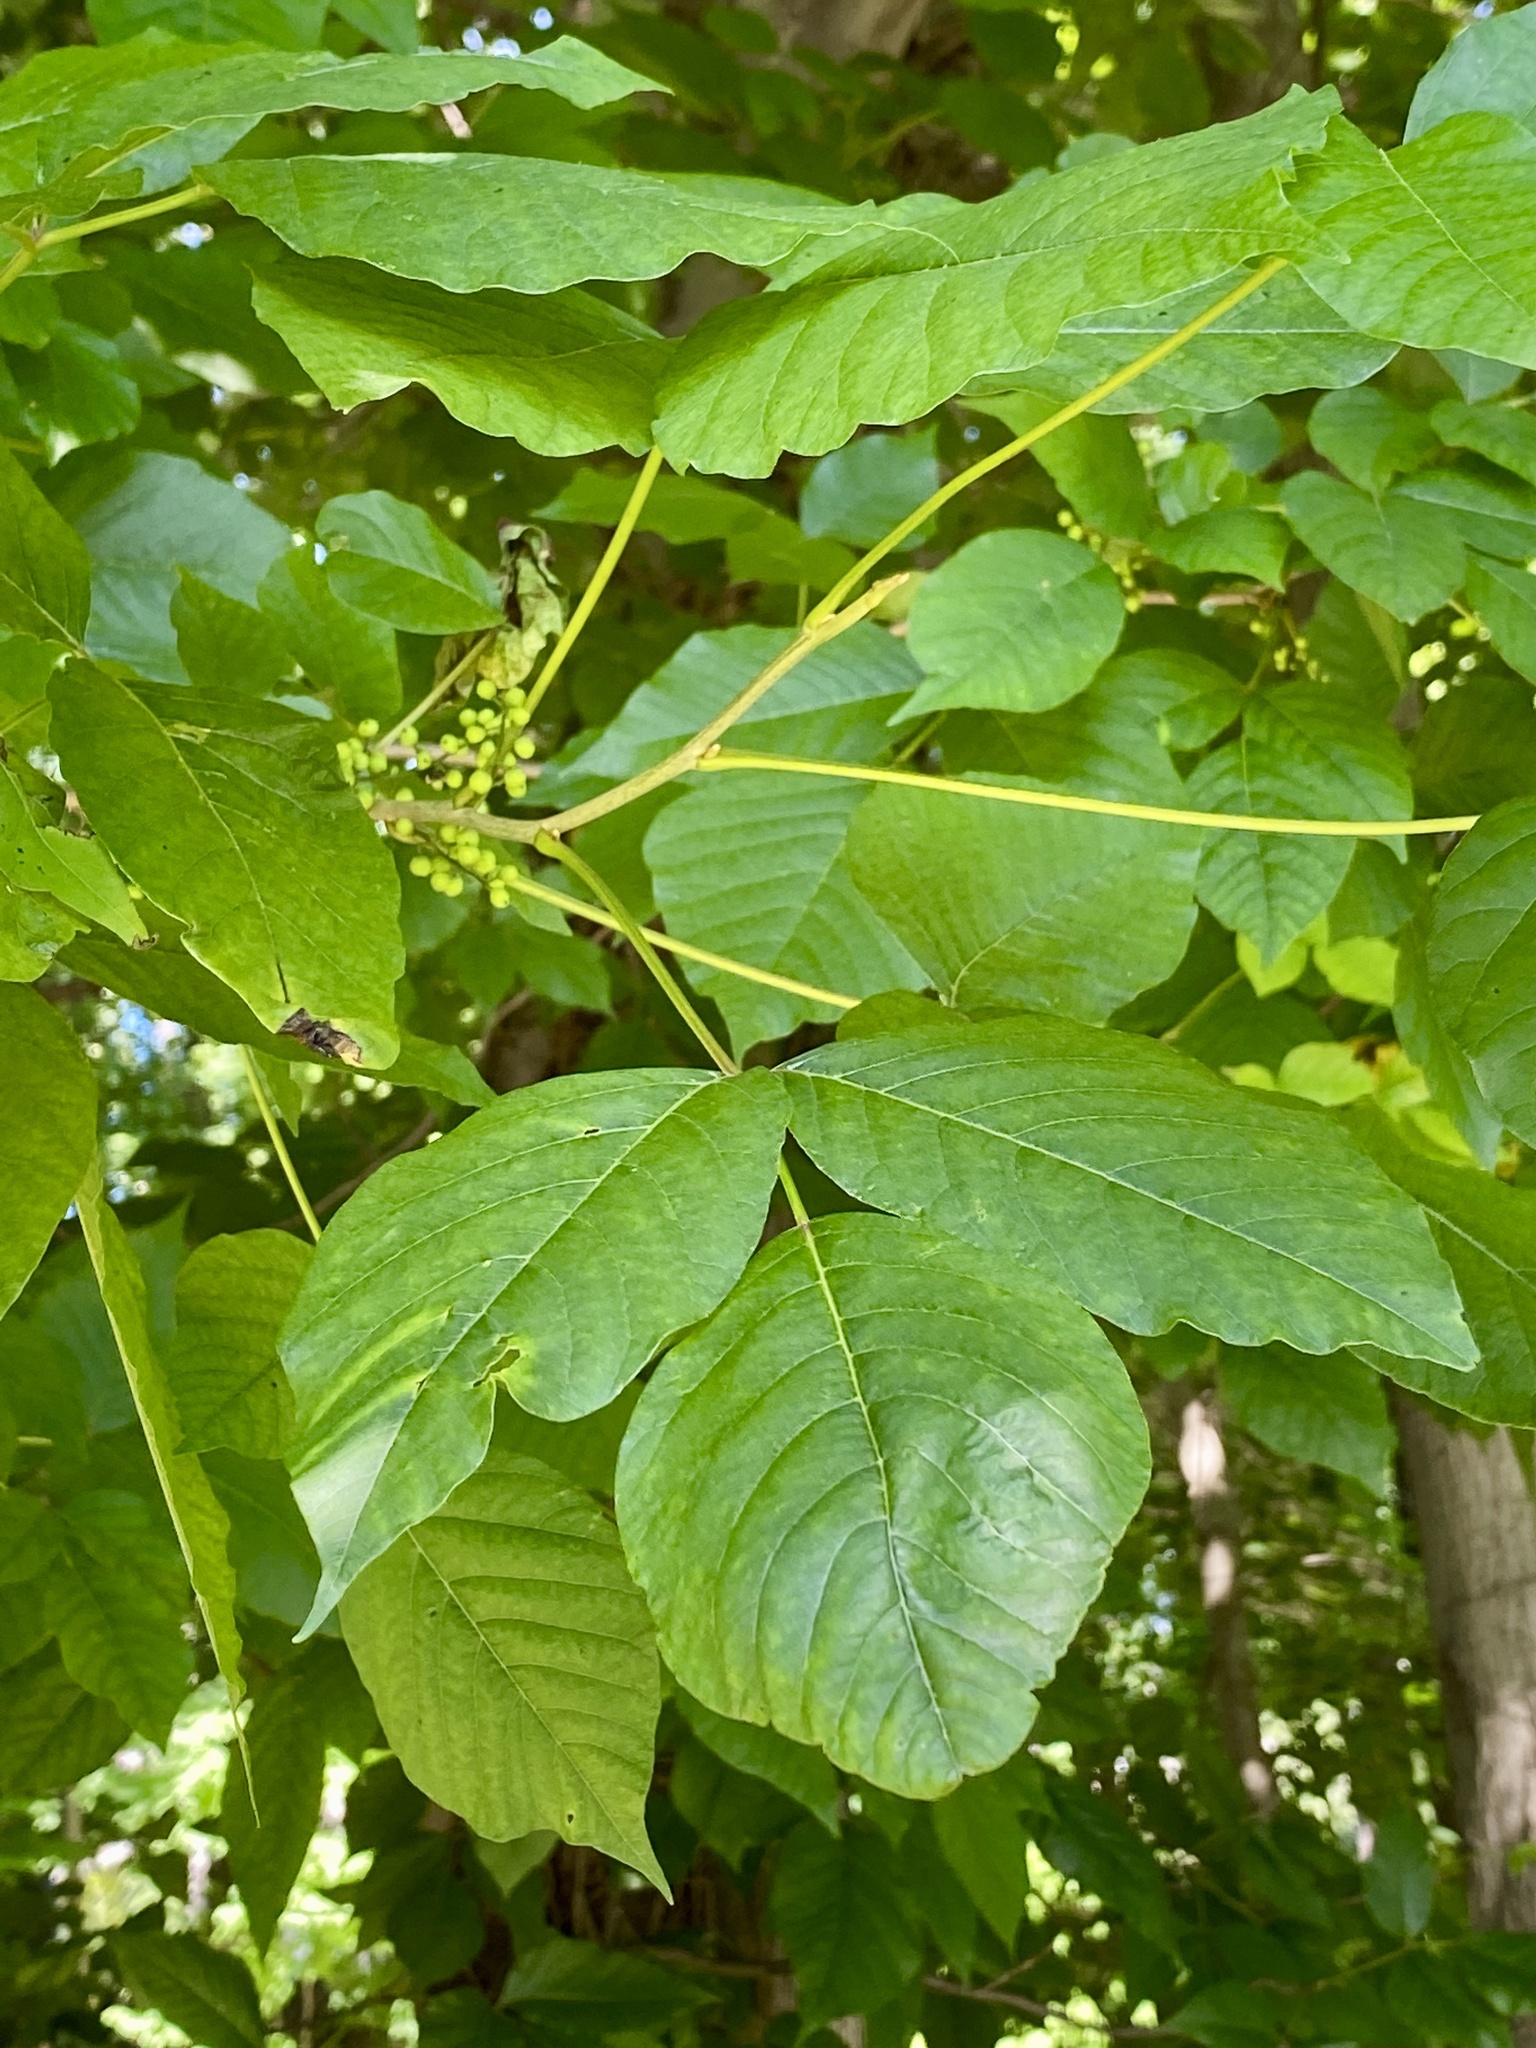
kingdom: Plantae
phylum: Tracheophyta
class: Magnoliopsida
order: Sapindales
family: Anacardiaceae
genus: Toxicodendron
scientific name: Toxicodendron radicans
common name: Poison ivy
